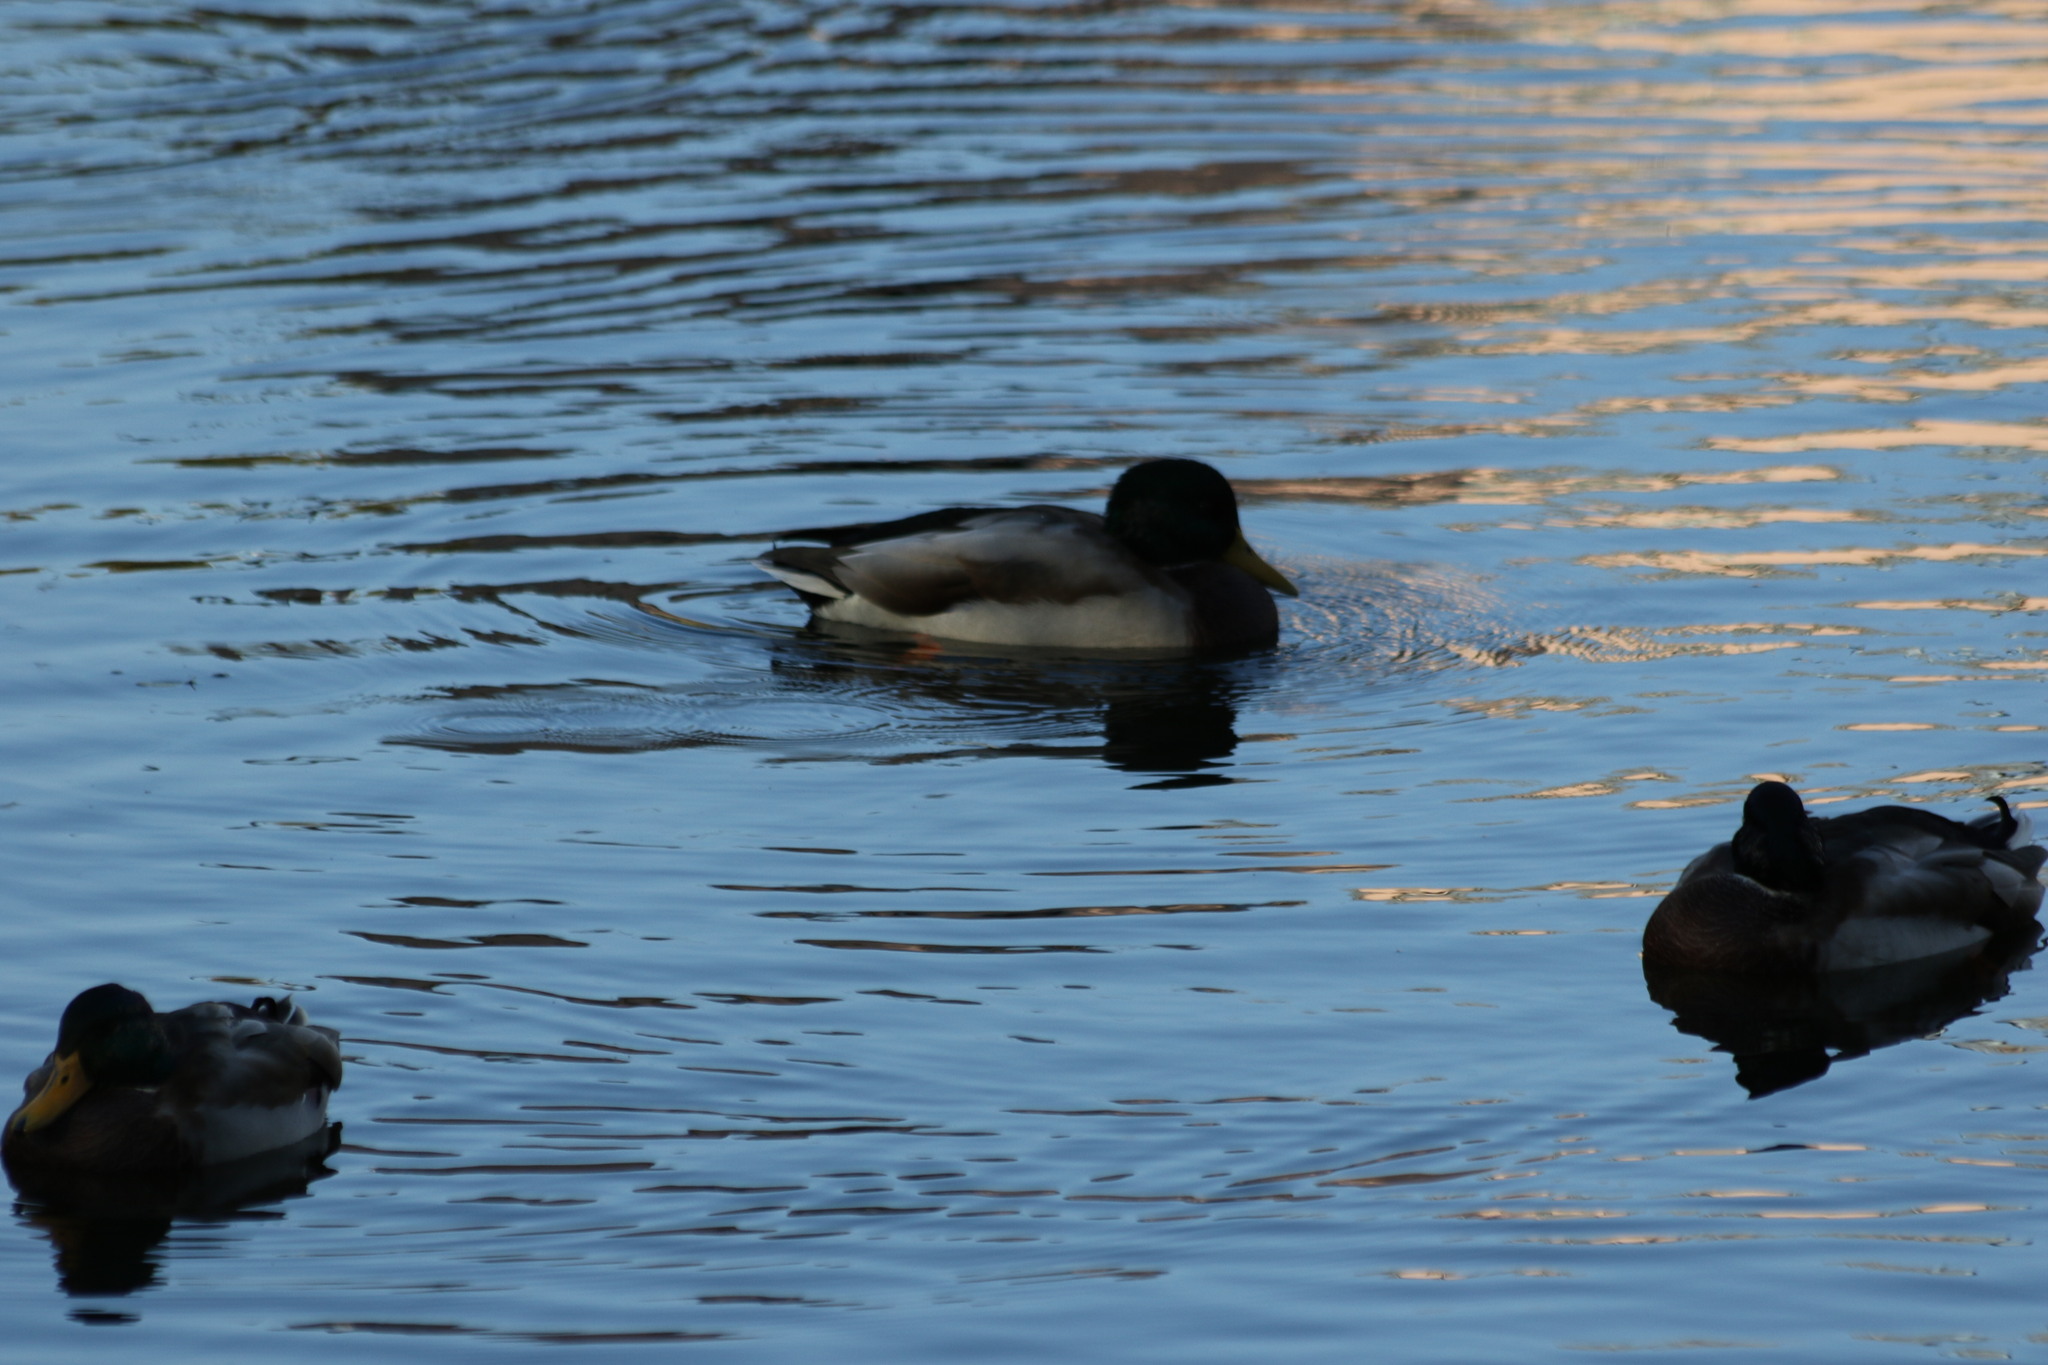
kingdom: Animalia
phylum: Chordata
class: Aves
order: Anseriformes
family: Anatidae
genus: Anas
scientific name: Anas platyrhynchos
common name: Mallard
